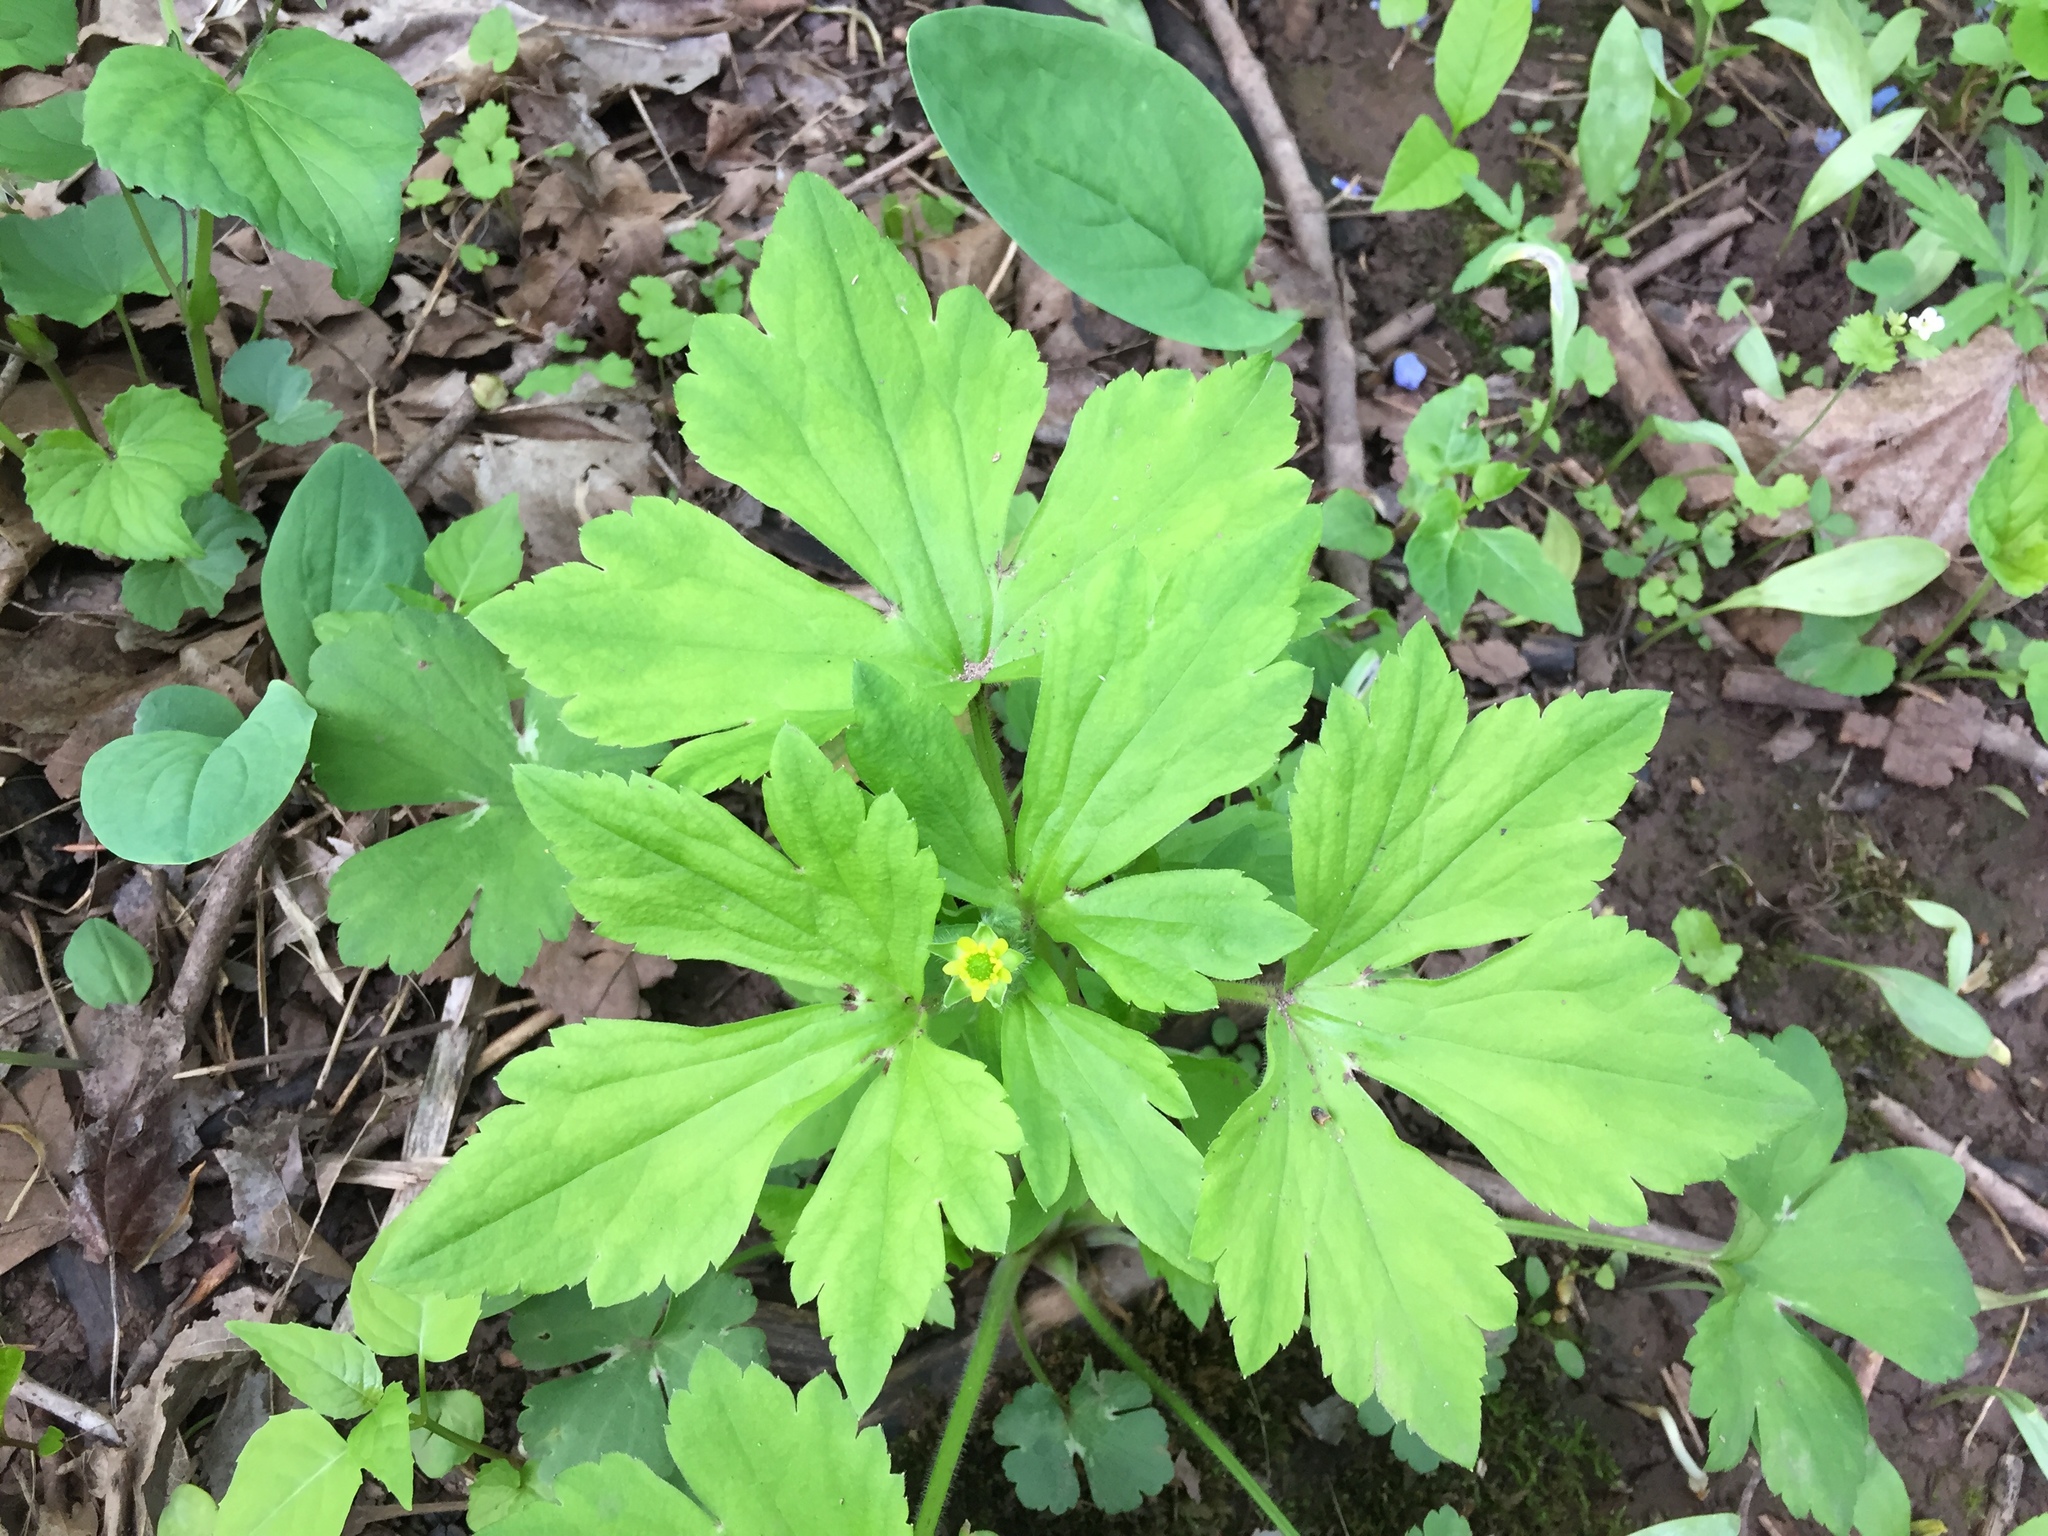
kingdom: Plantae
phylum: Tracheophyta
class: Magnoliopsida
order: Ranunculales
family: Ranunculaceae
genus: Ranunculus
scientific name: Ranunculus recurvatus
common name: Blisterwort
